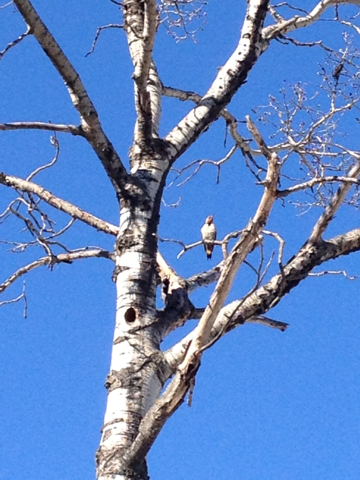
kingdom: Animalia
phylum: Chordata
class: Aves
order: Piciformes
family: Picidae
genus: Colaptes
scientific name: Colaptes auratus
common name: Northern flicker
